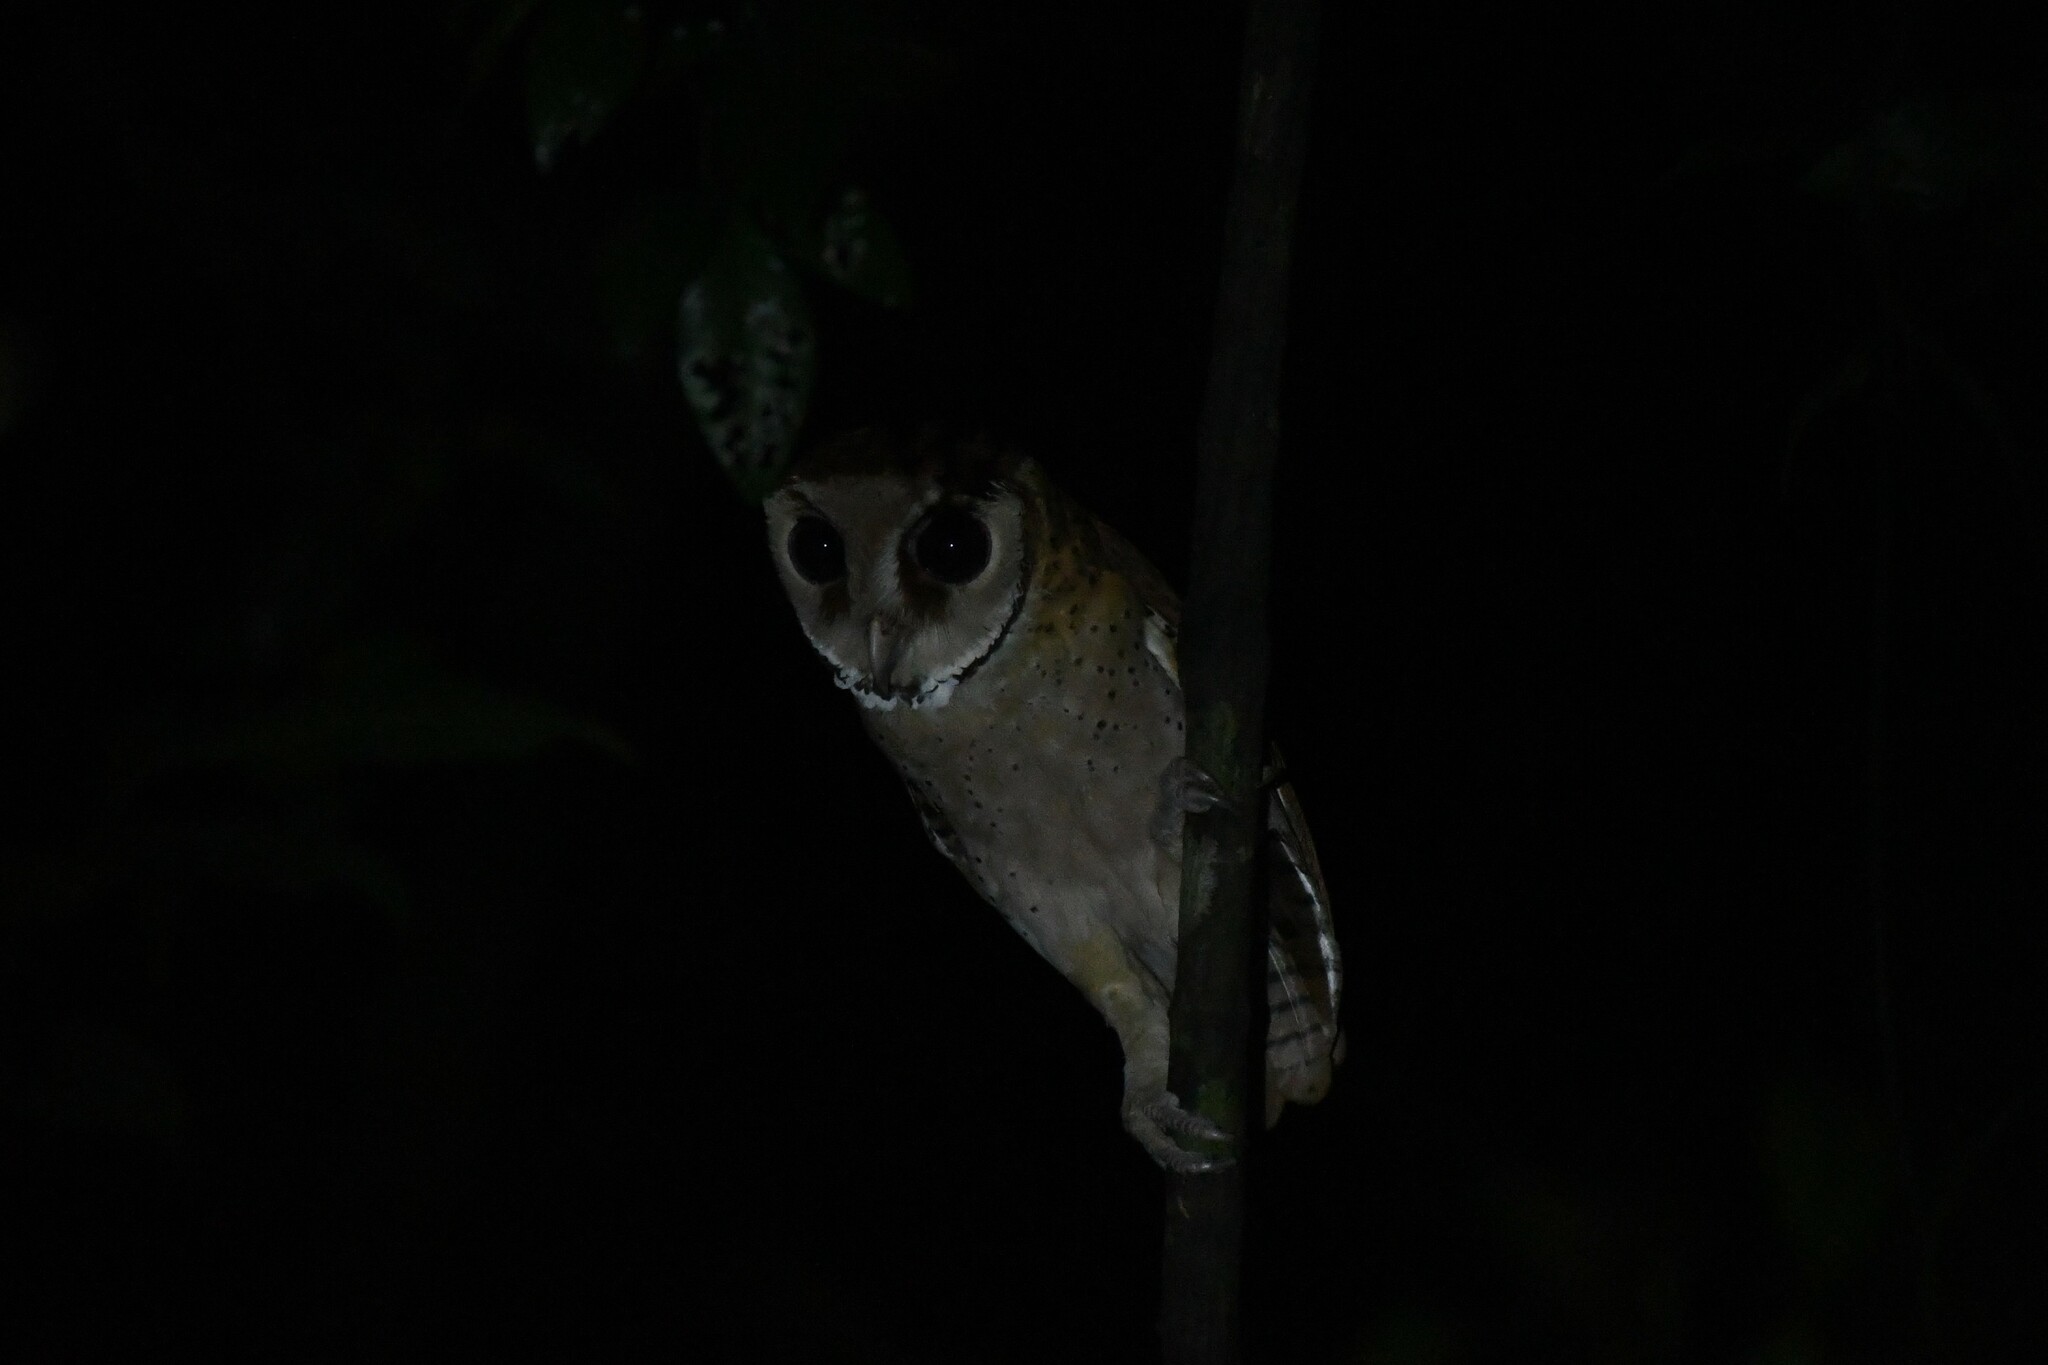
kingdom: Animalia
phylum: Chordata
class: Aves
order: Strigiformes
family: Tytonidae
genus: Phodilus
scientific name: Phodilus badius
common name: Oriental bay-owl
